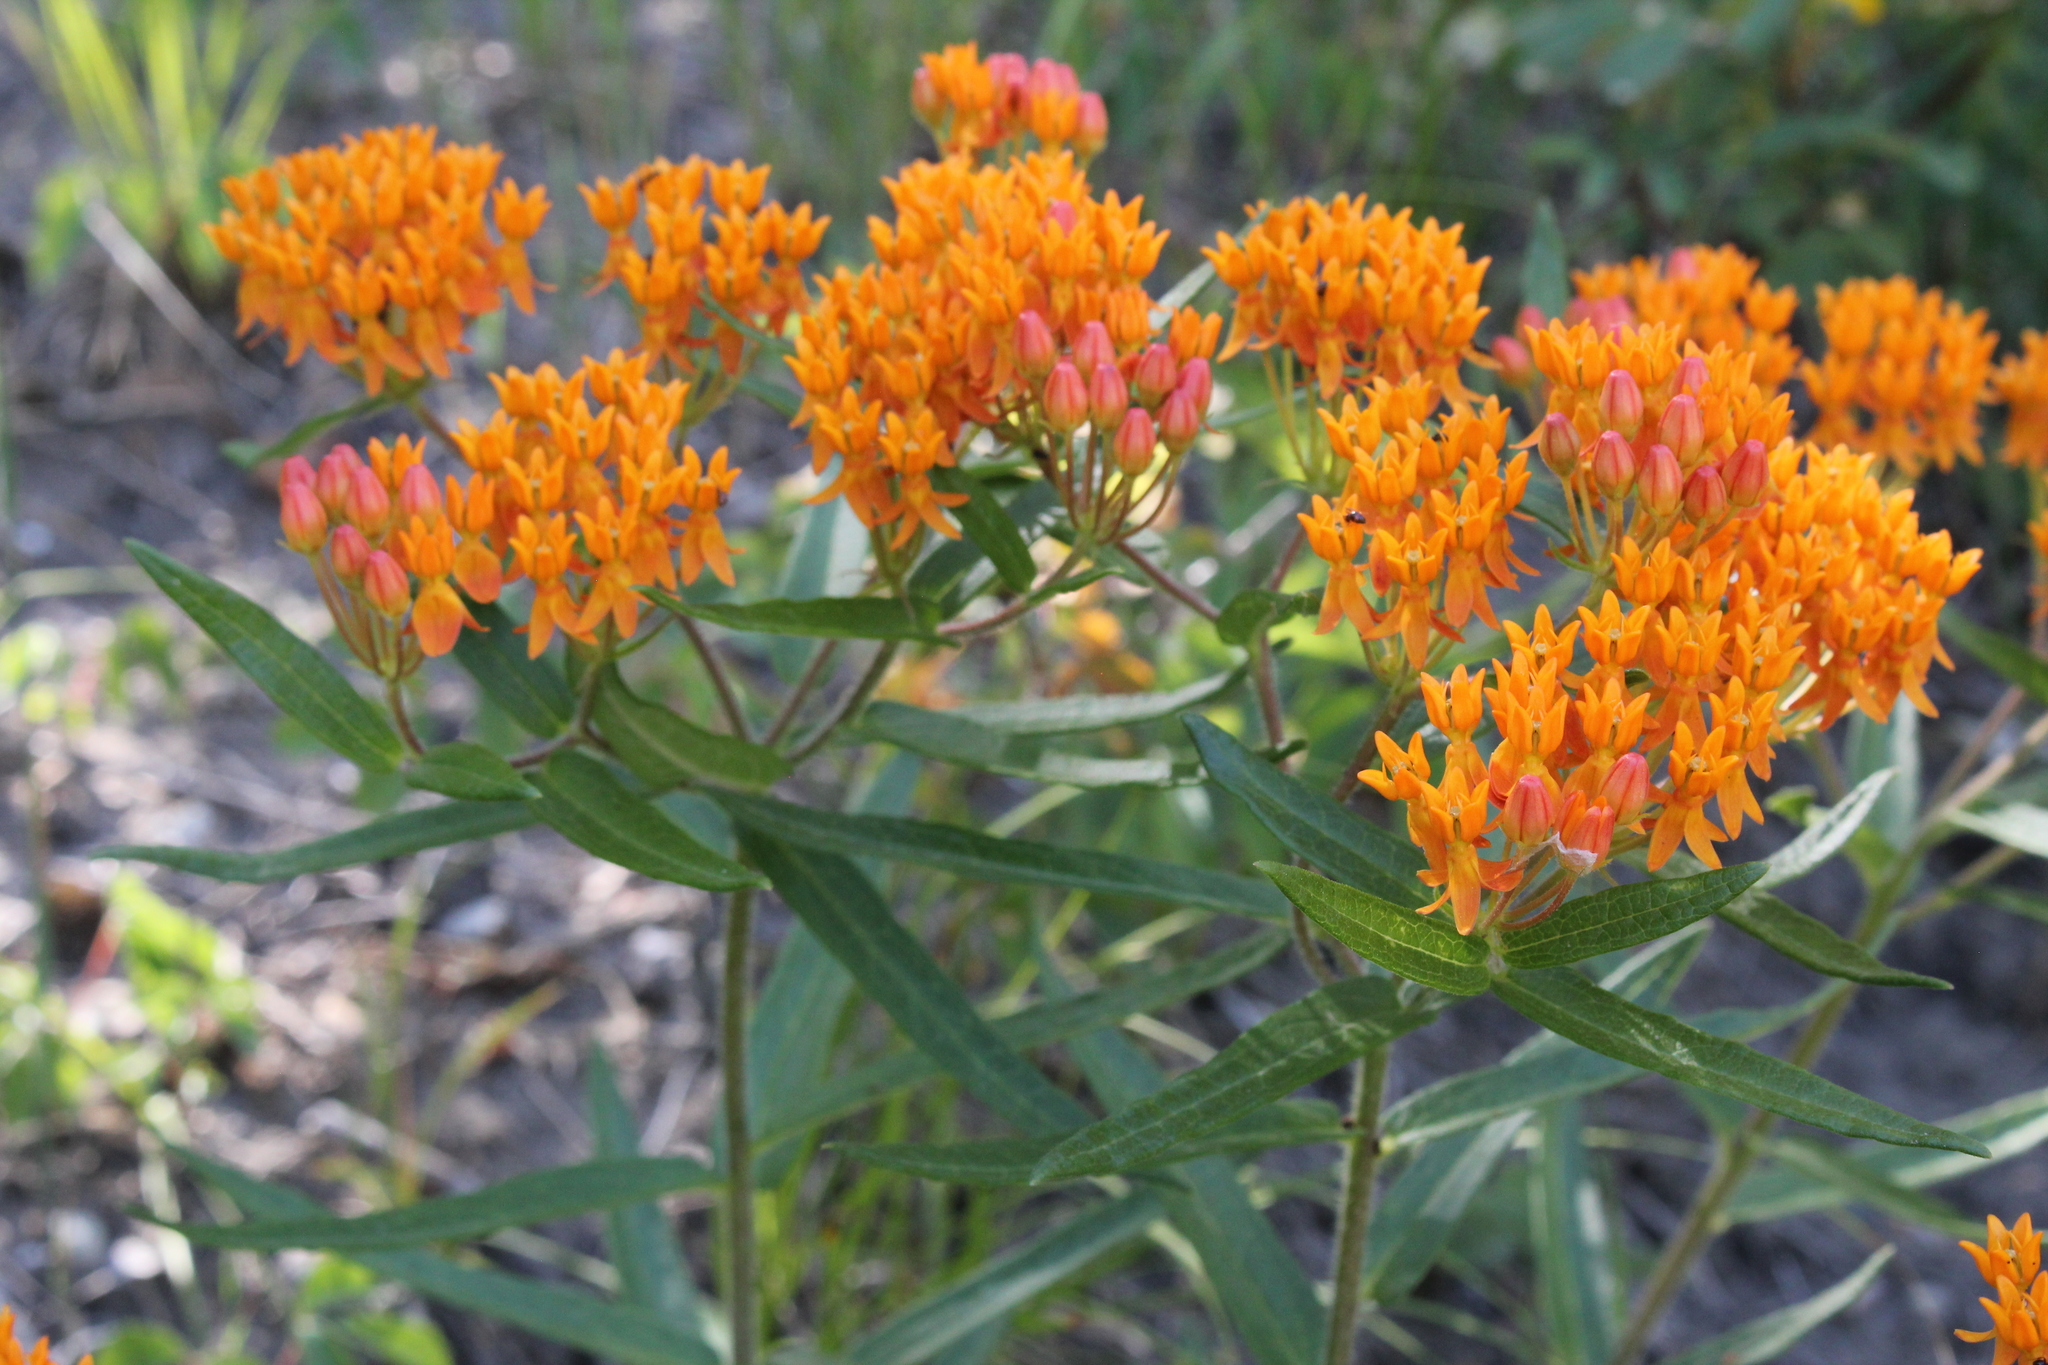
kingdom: Plantae
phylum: Tracheophyta
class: Magnoliopsida
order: Gentianales
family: Apocynaceae
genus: Asclepias
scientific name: Asclepias tuberosa
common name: Butterfly milkweed
